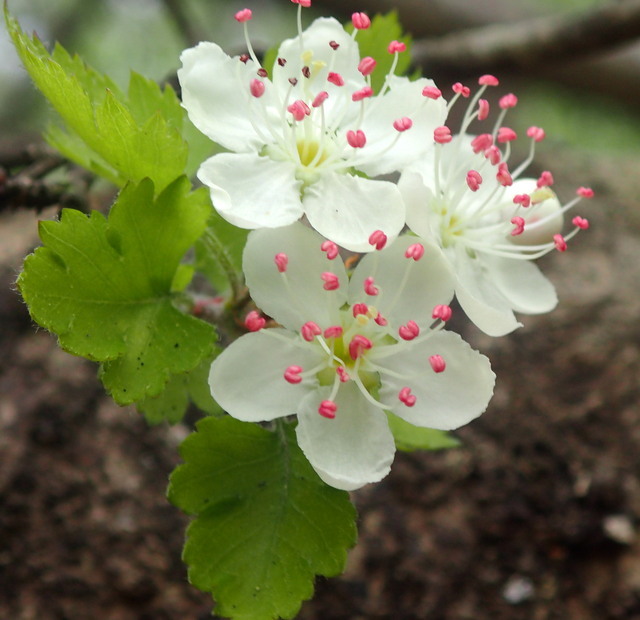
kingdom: Plantae
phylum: Tracheophyta
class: Magnoliopsida
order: Rosales
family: Rosaceae
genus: Crataegus
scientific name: Crataegus marshallii
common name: Parsley-hawthorn
